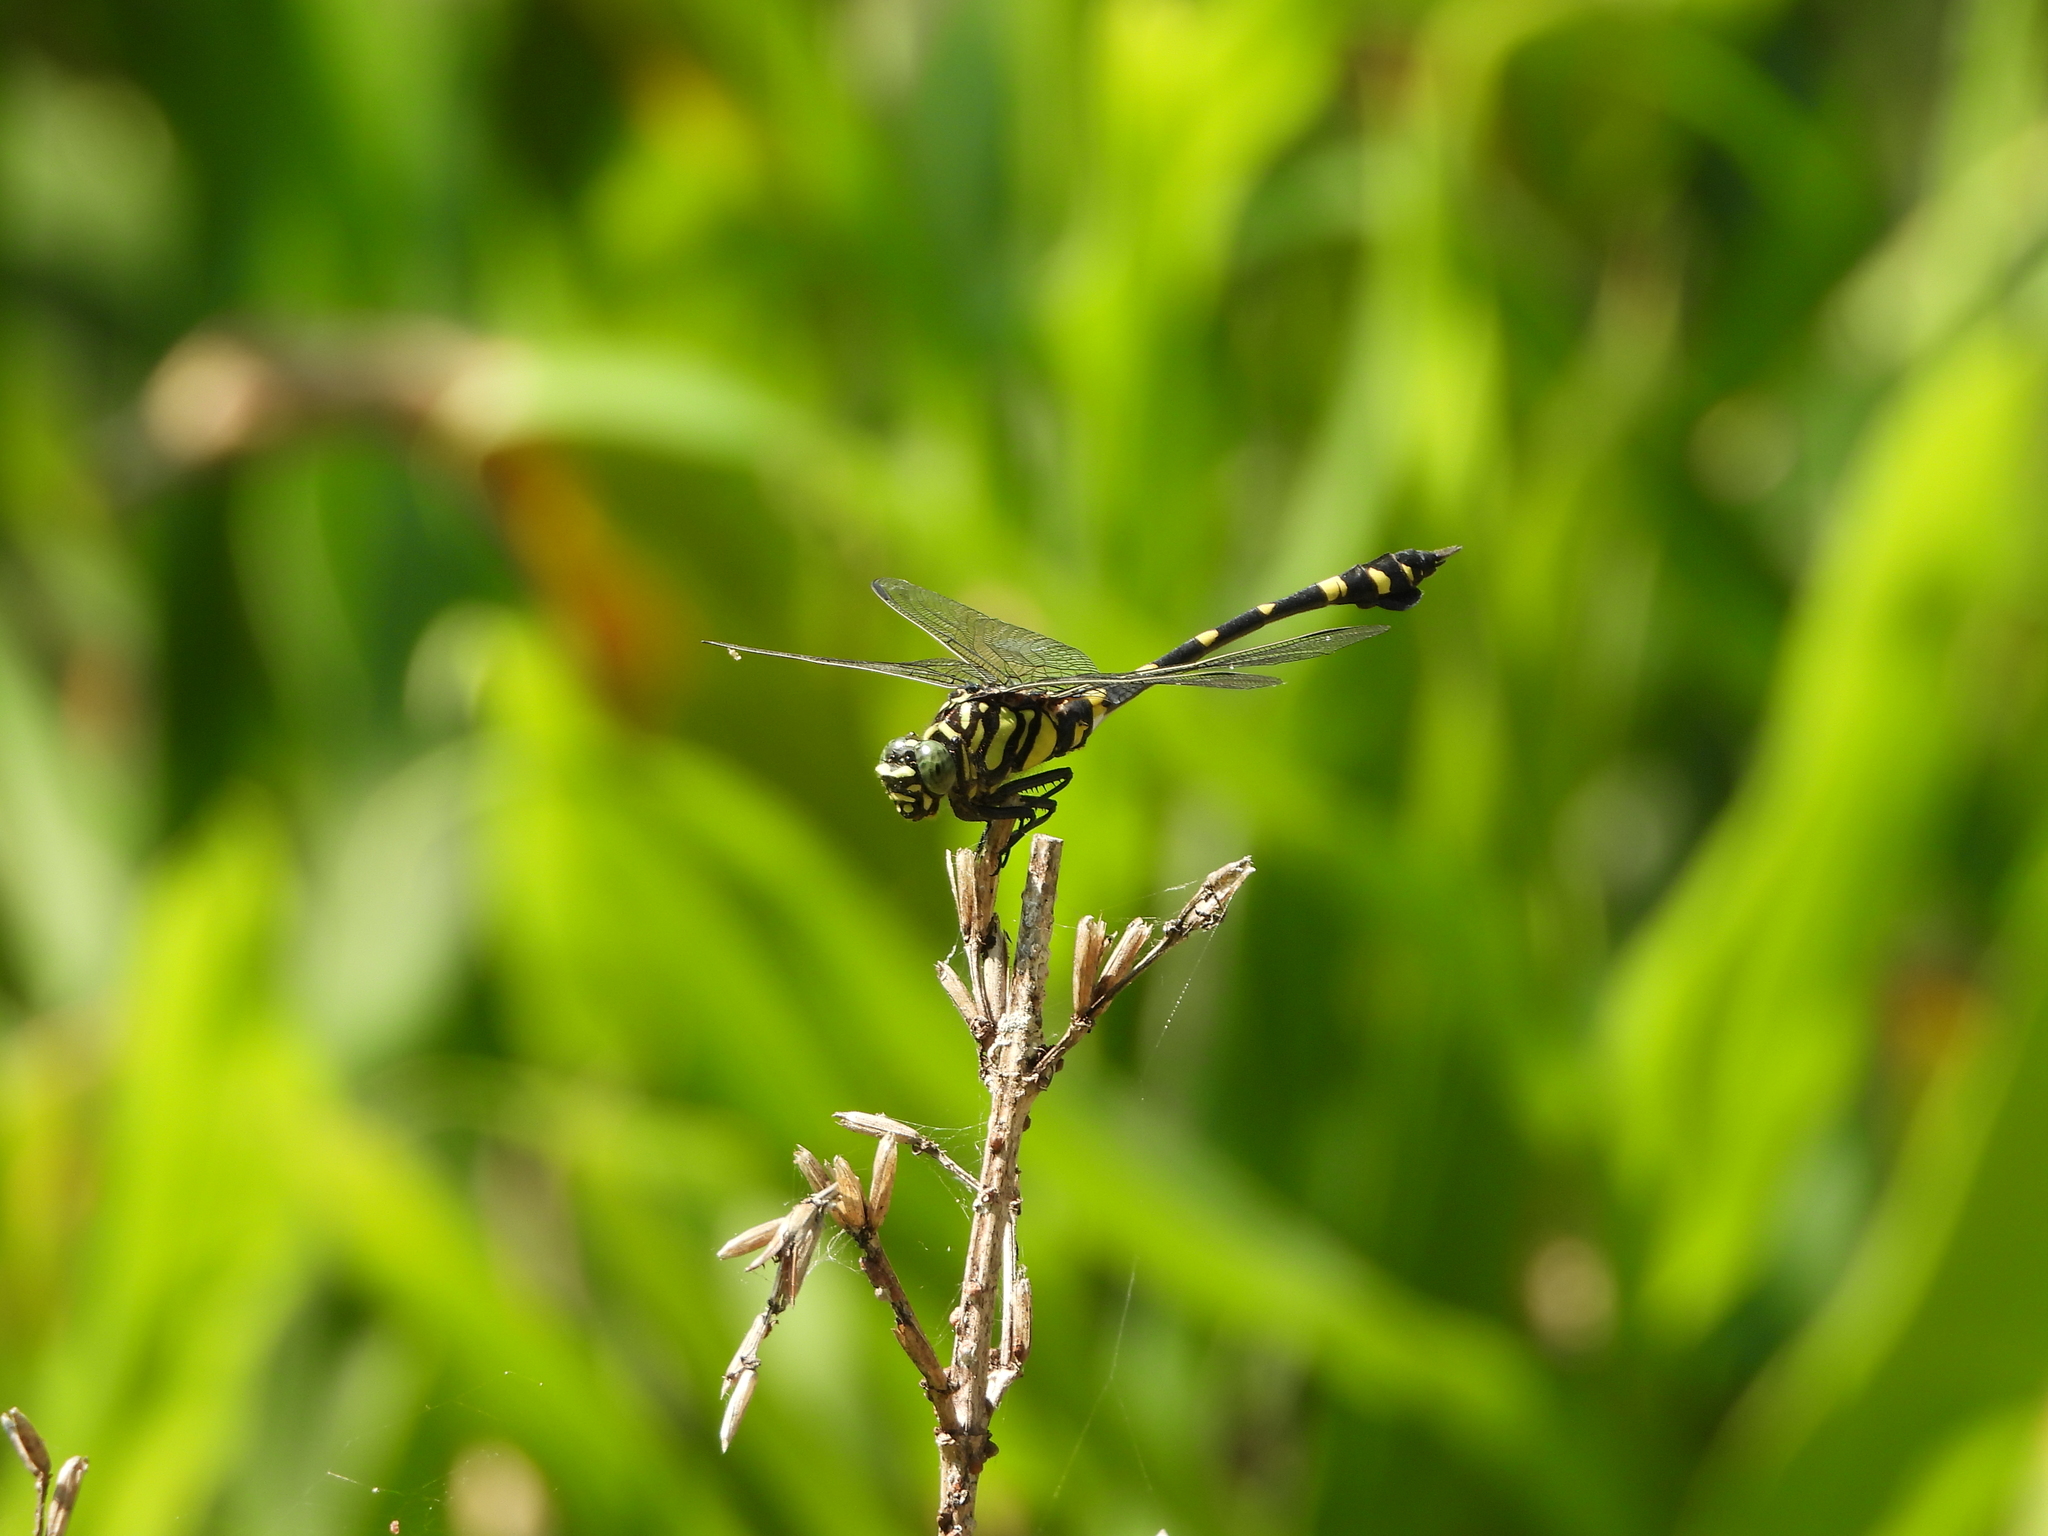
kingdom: Animalia
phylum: Arthropoda
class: Insecta
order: Odonata
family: Gomphidae
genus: Ictinogomphus
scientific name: Ictinogomphus rapax
